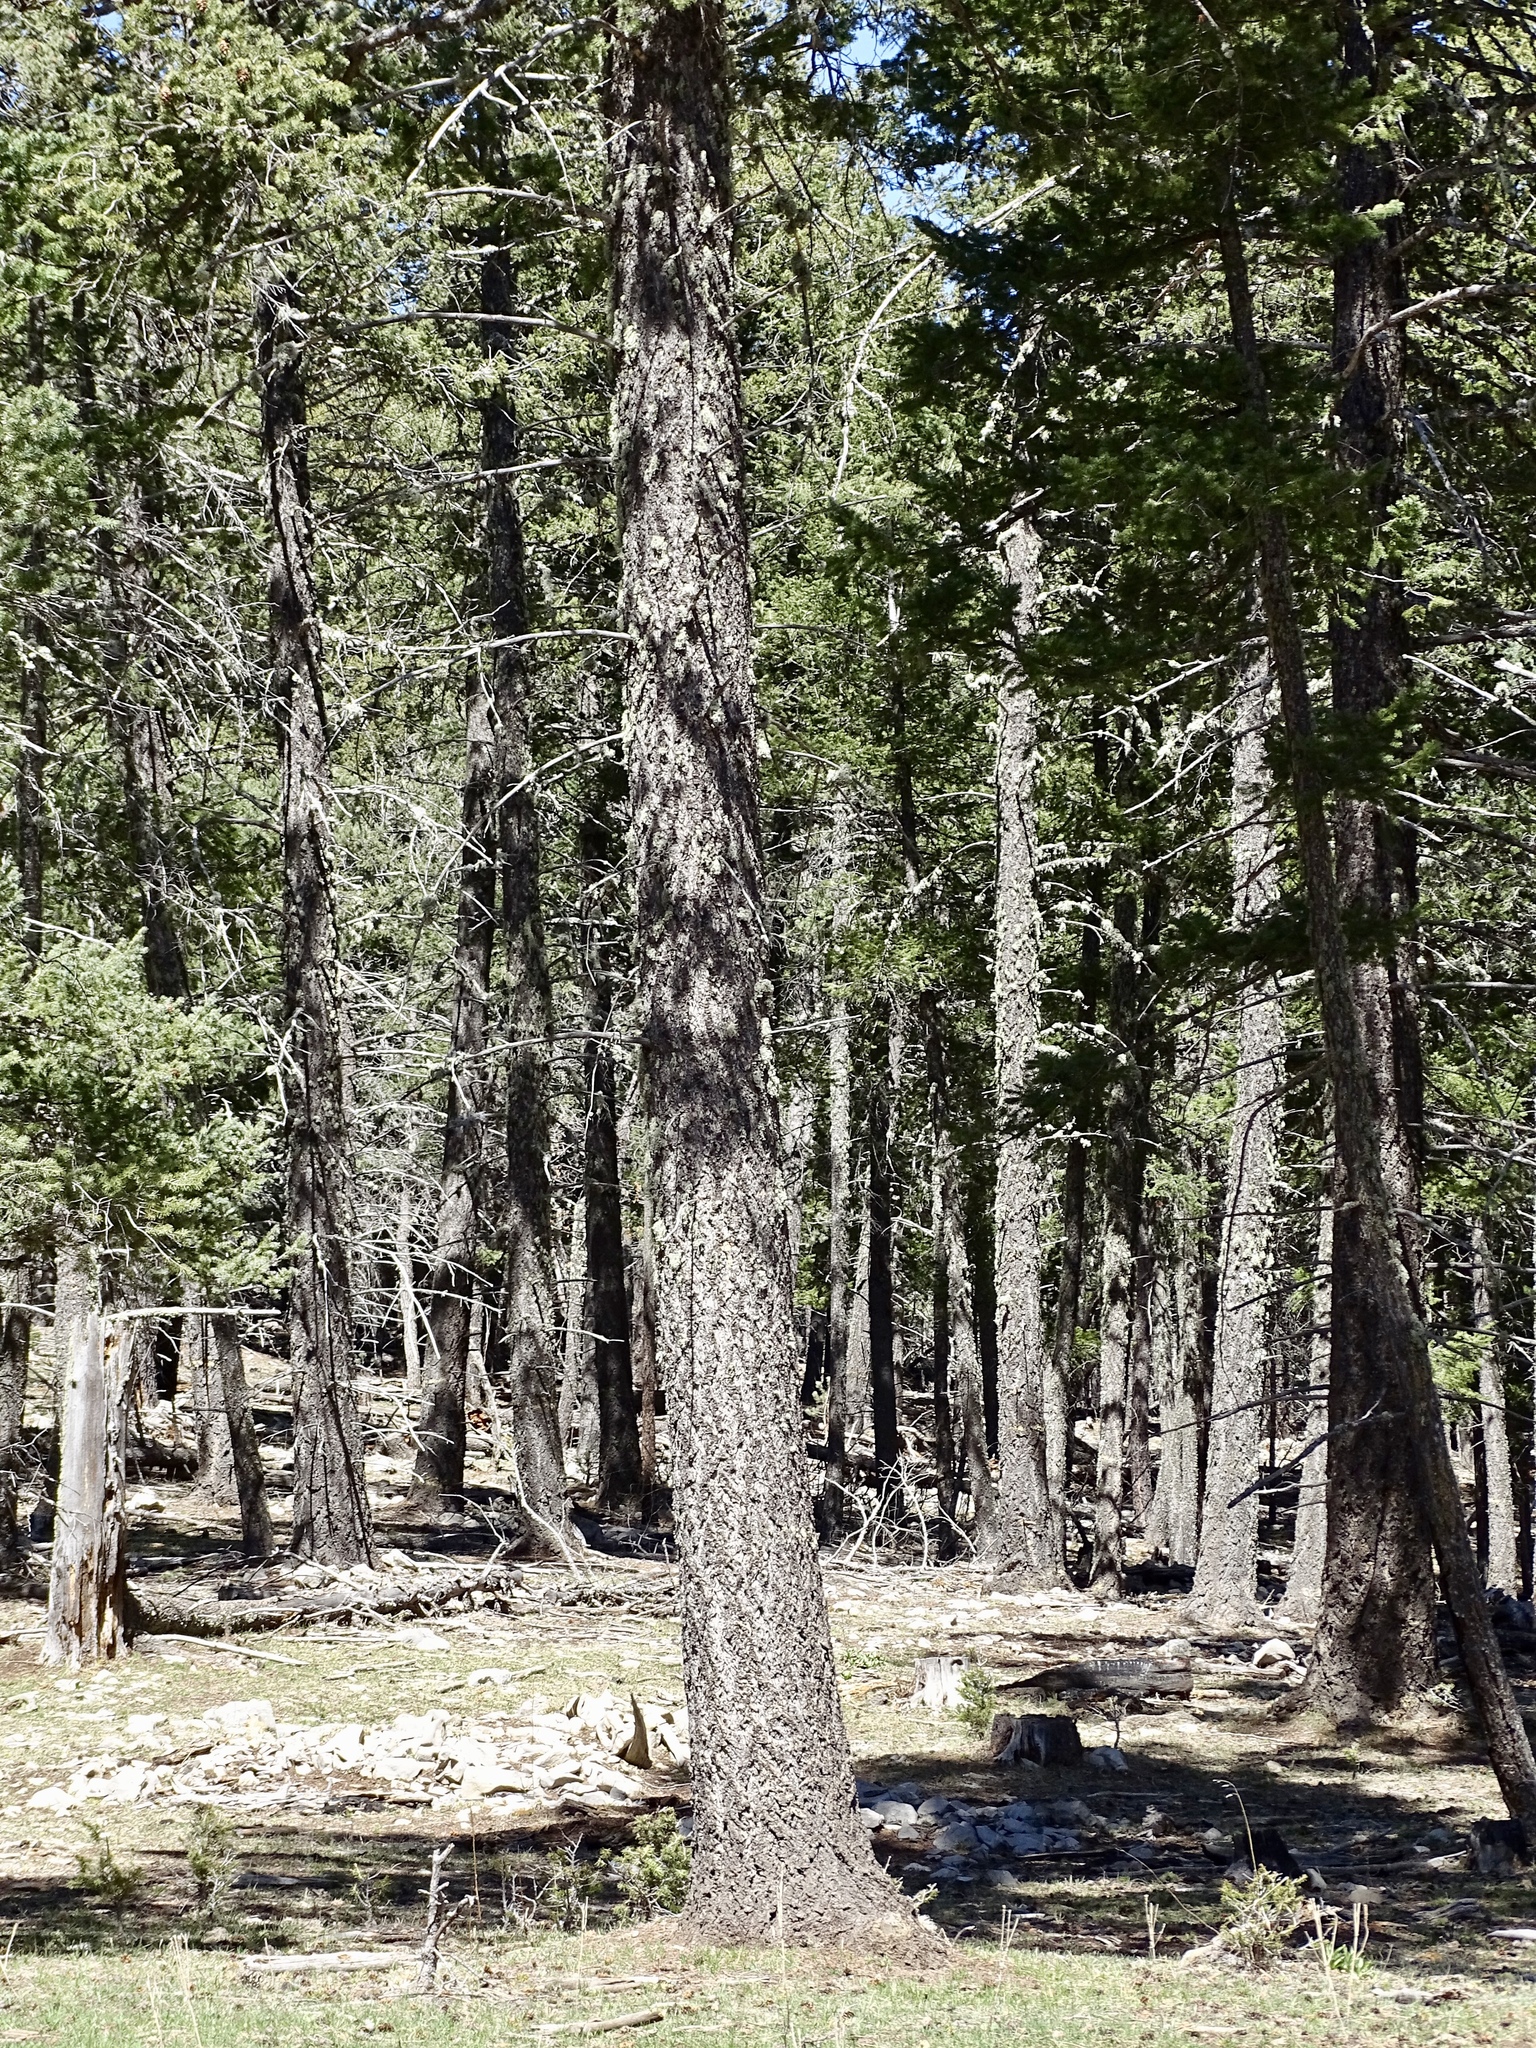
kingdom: Plantae
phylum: Tracheophyta
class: Pinopsida
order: Pinales
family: Pinaceae
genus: Pseudotsuga
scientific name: Pseudotsuga menziesii
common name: Douglas fir
